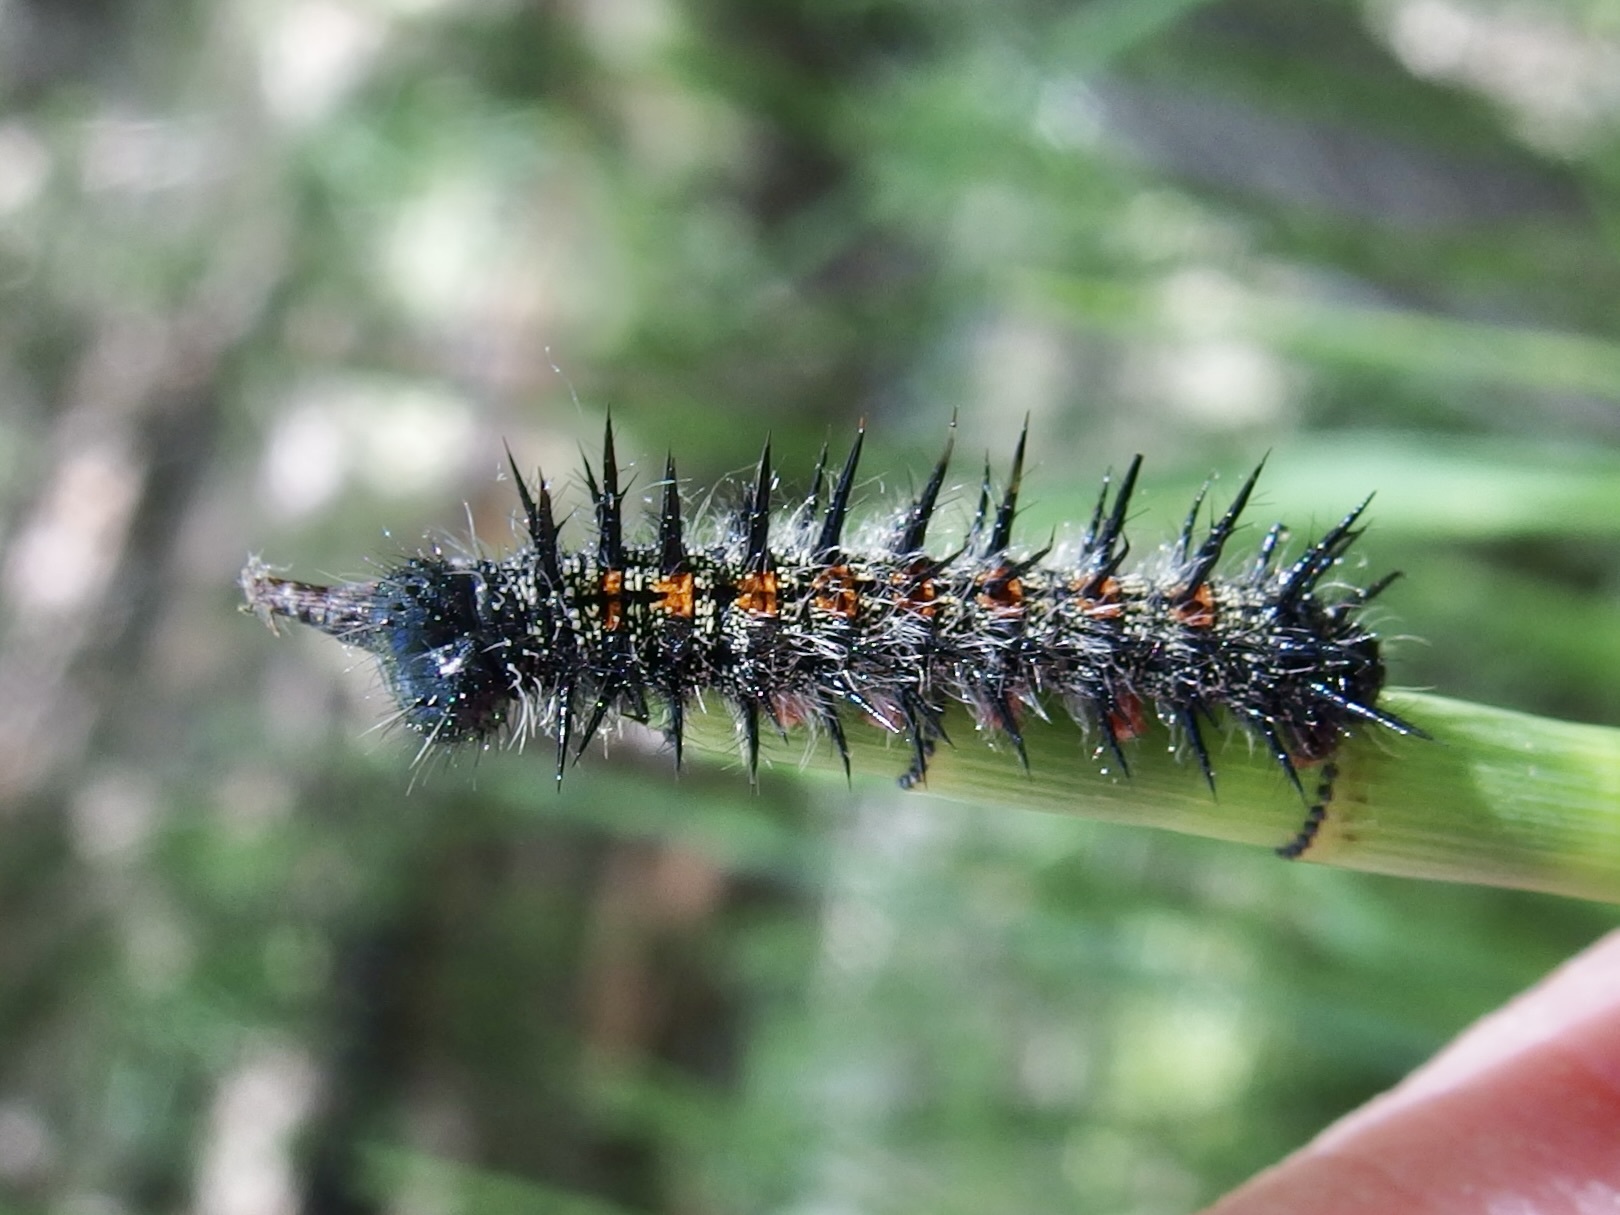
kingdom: Animalia
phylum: Arthropoda
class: Insecta
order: Lepidoptera
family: Nymphalidae
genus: Nymphalis
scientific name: Nymphalis antiopa
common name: Camberwell beauty
